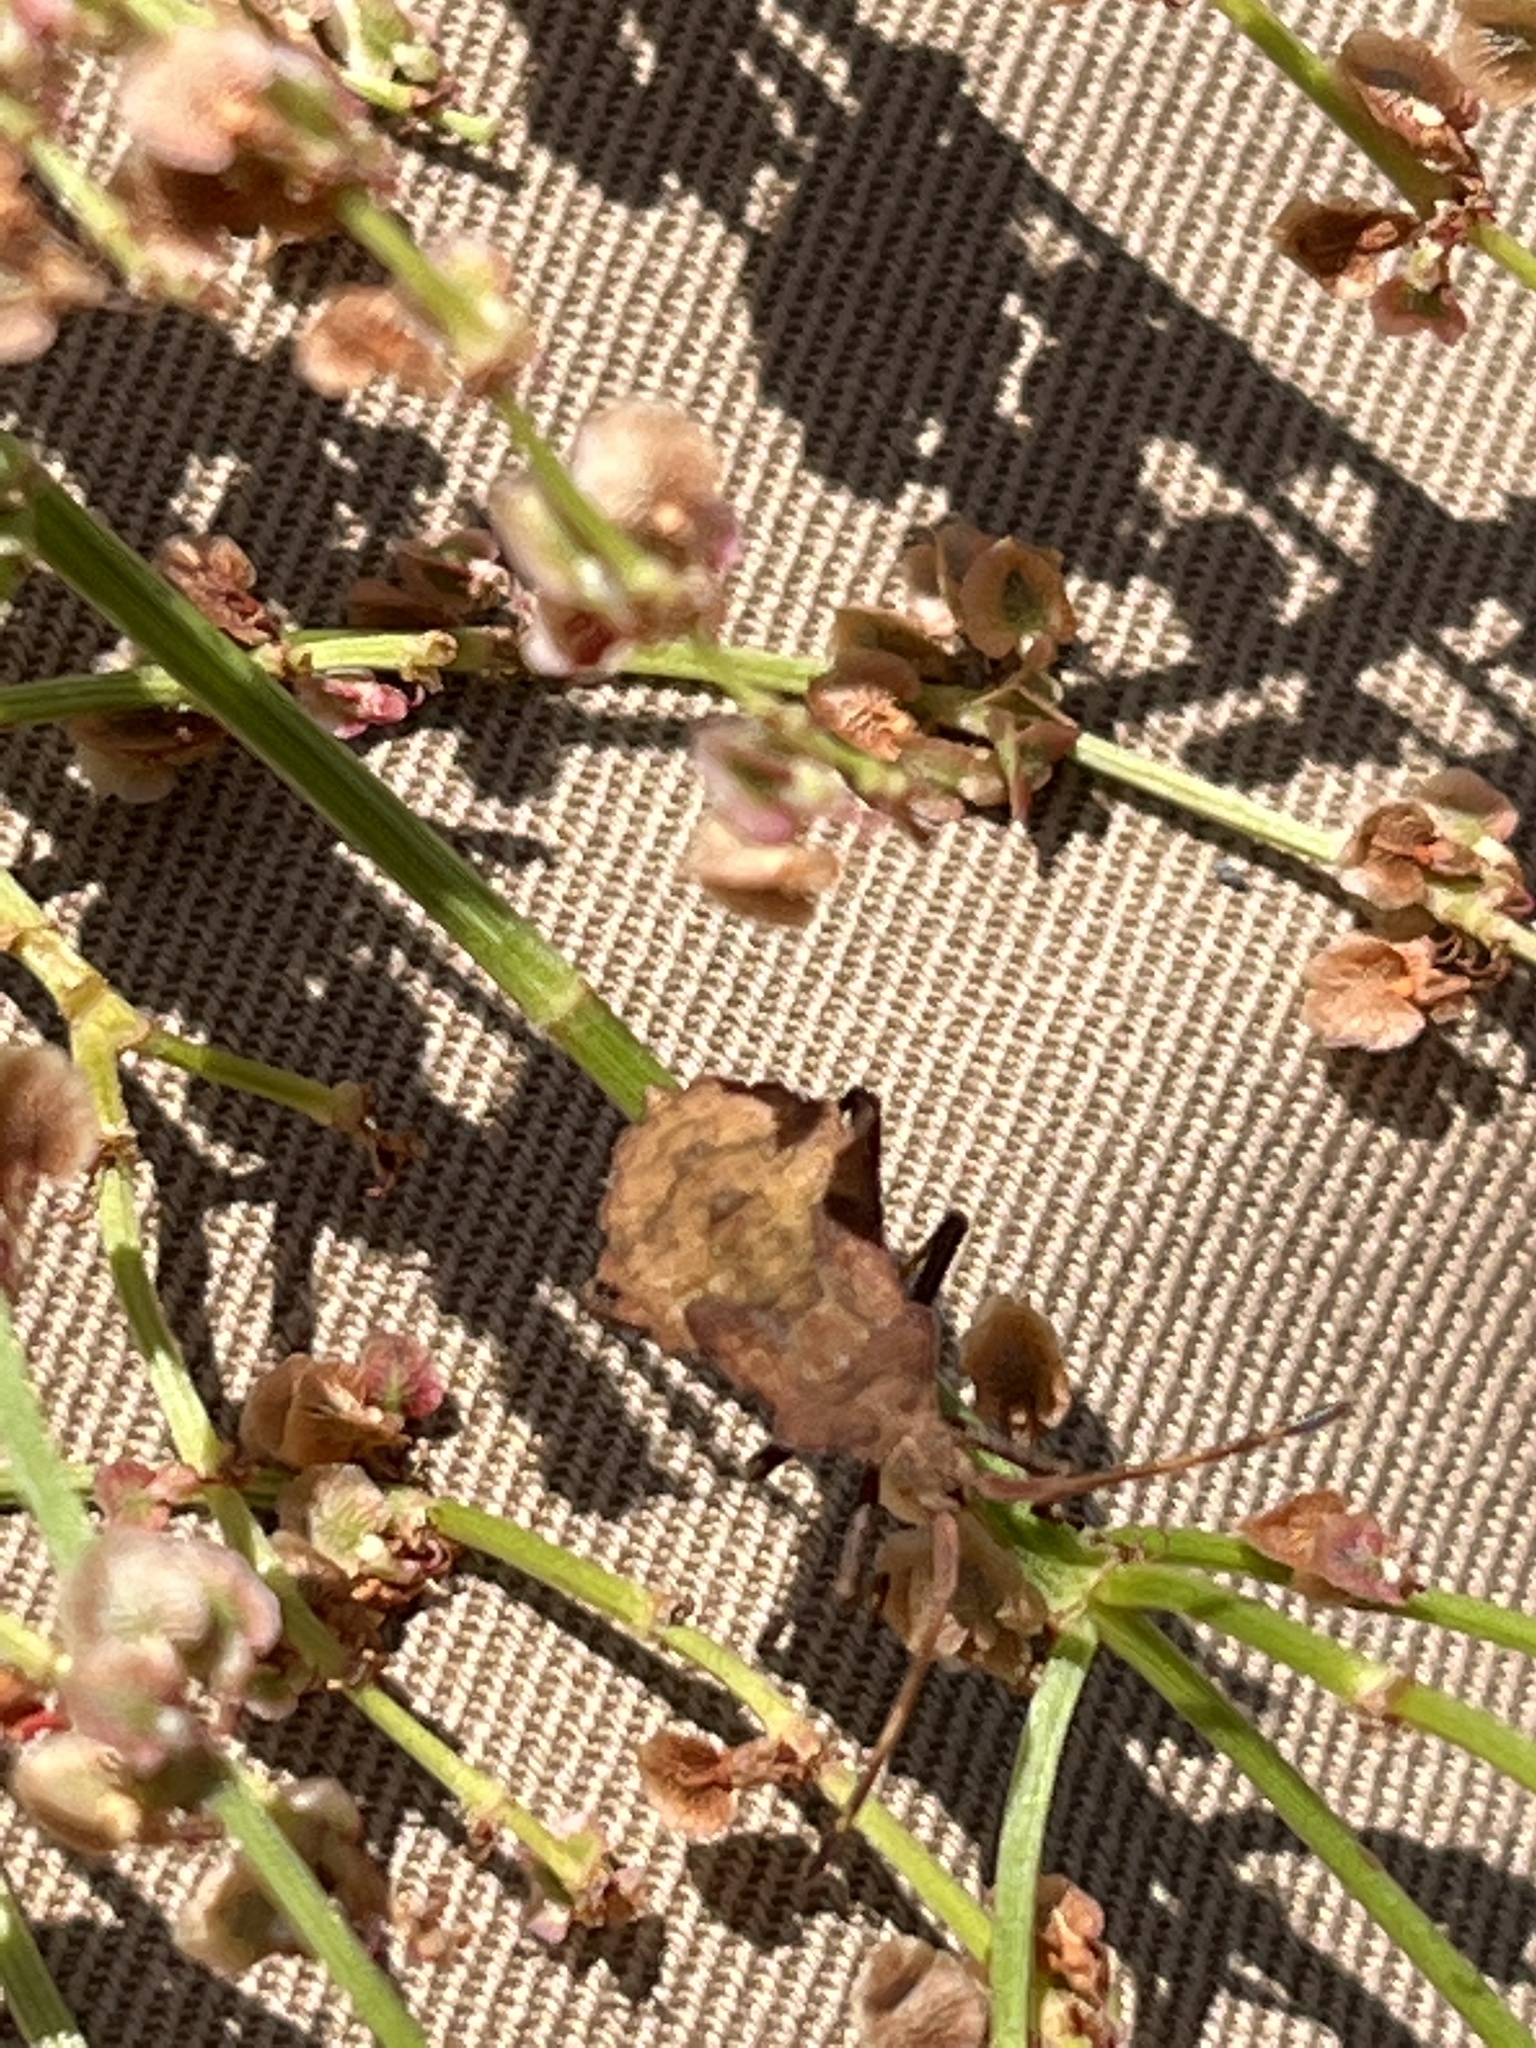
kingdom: Animalia
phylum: Arthropoda
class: Insecta
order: Hemiptera
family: Coreidae
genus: Coreus
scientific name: Coreus marginatus
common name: Dock bug
